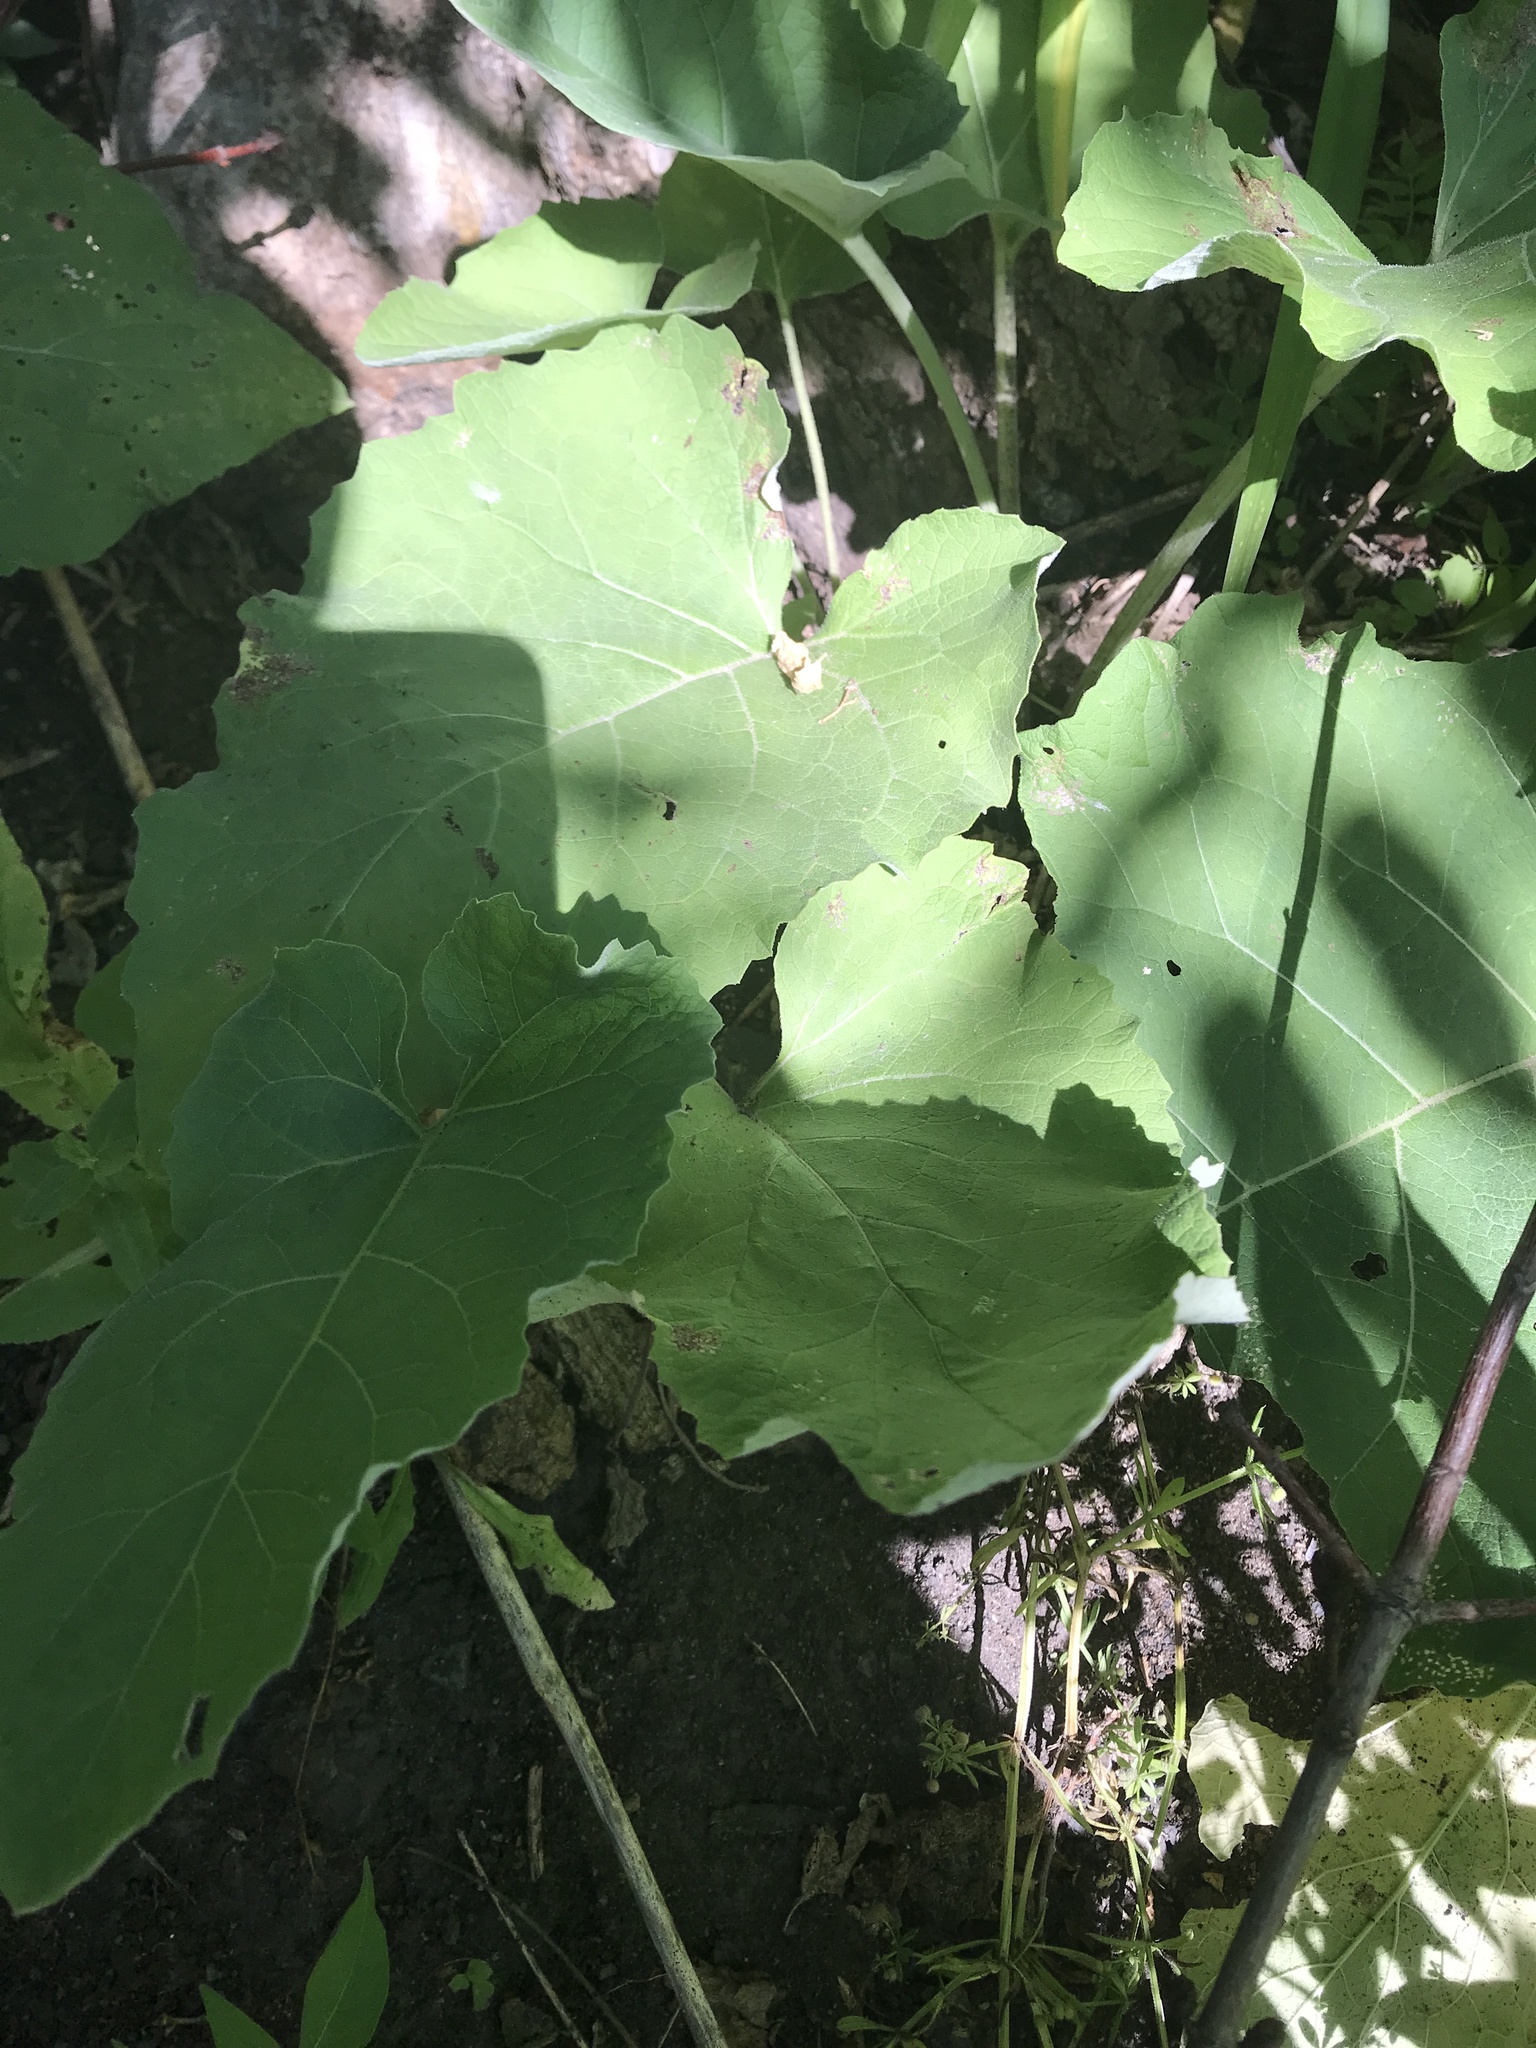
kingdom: Plantae
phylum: Tracheophyta
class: Magnoliopsida
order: Asterales
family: Asteraceae
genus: Arctium
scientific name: Arctium
